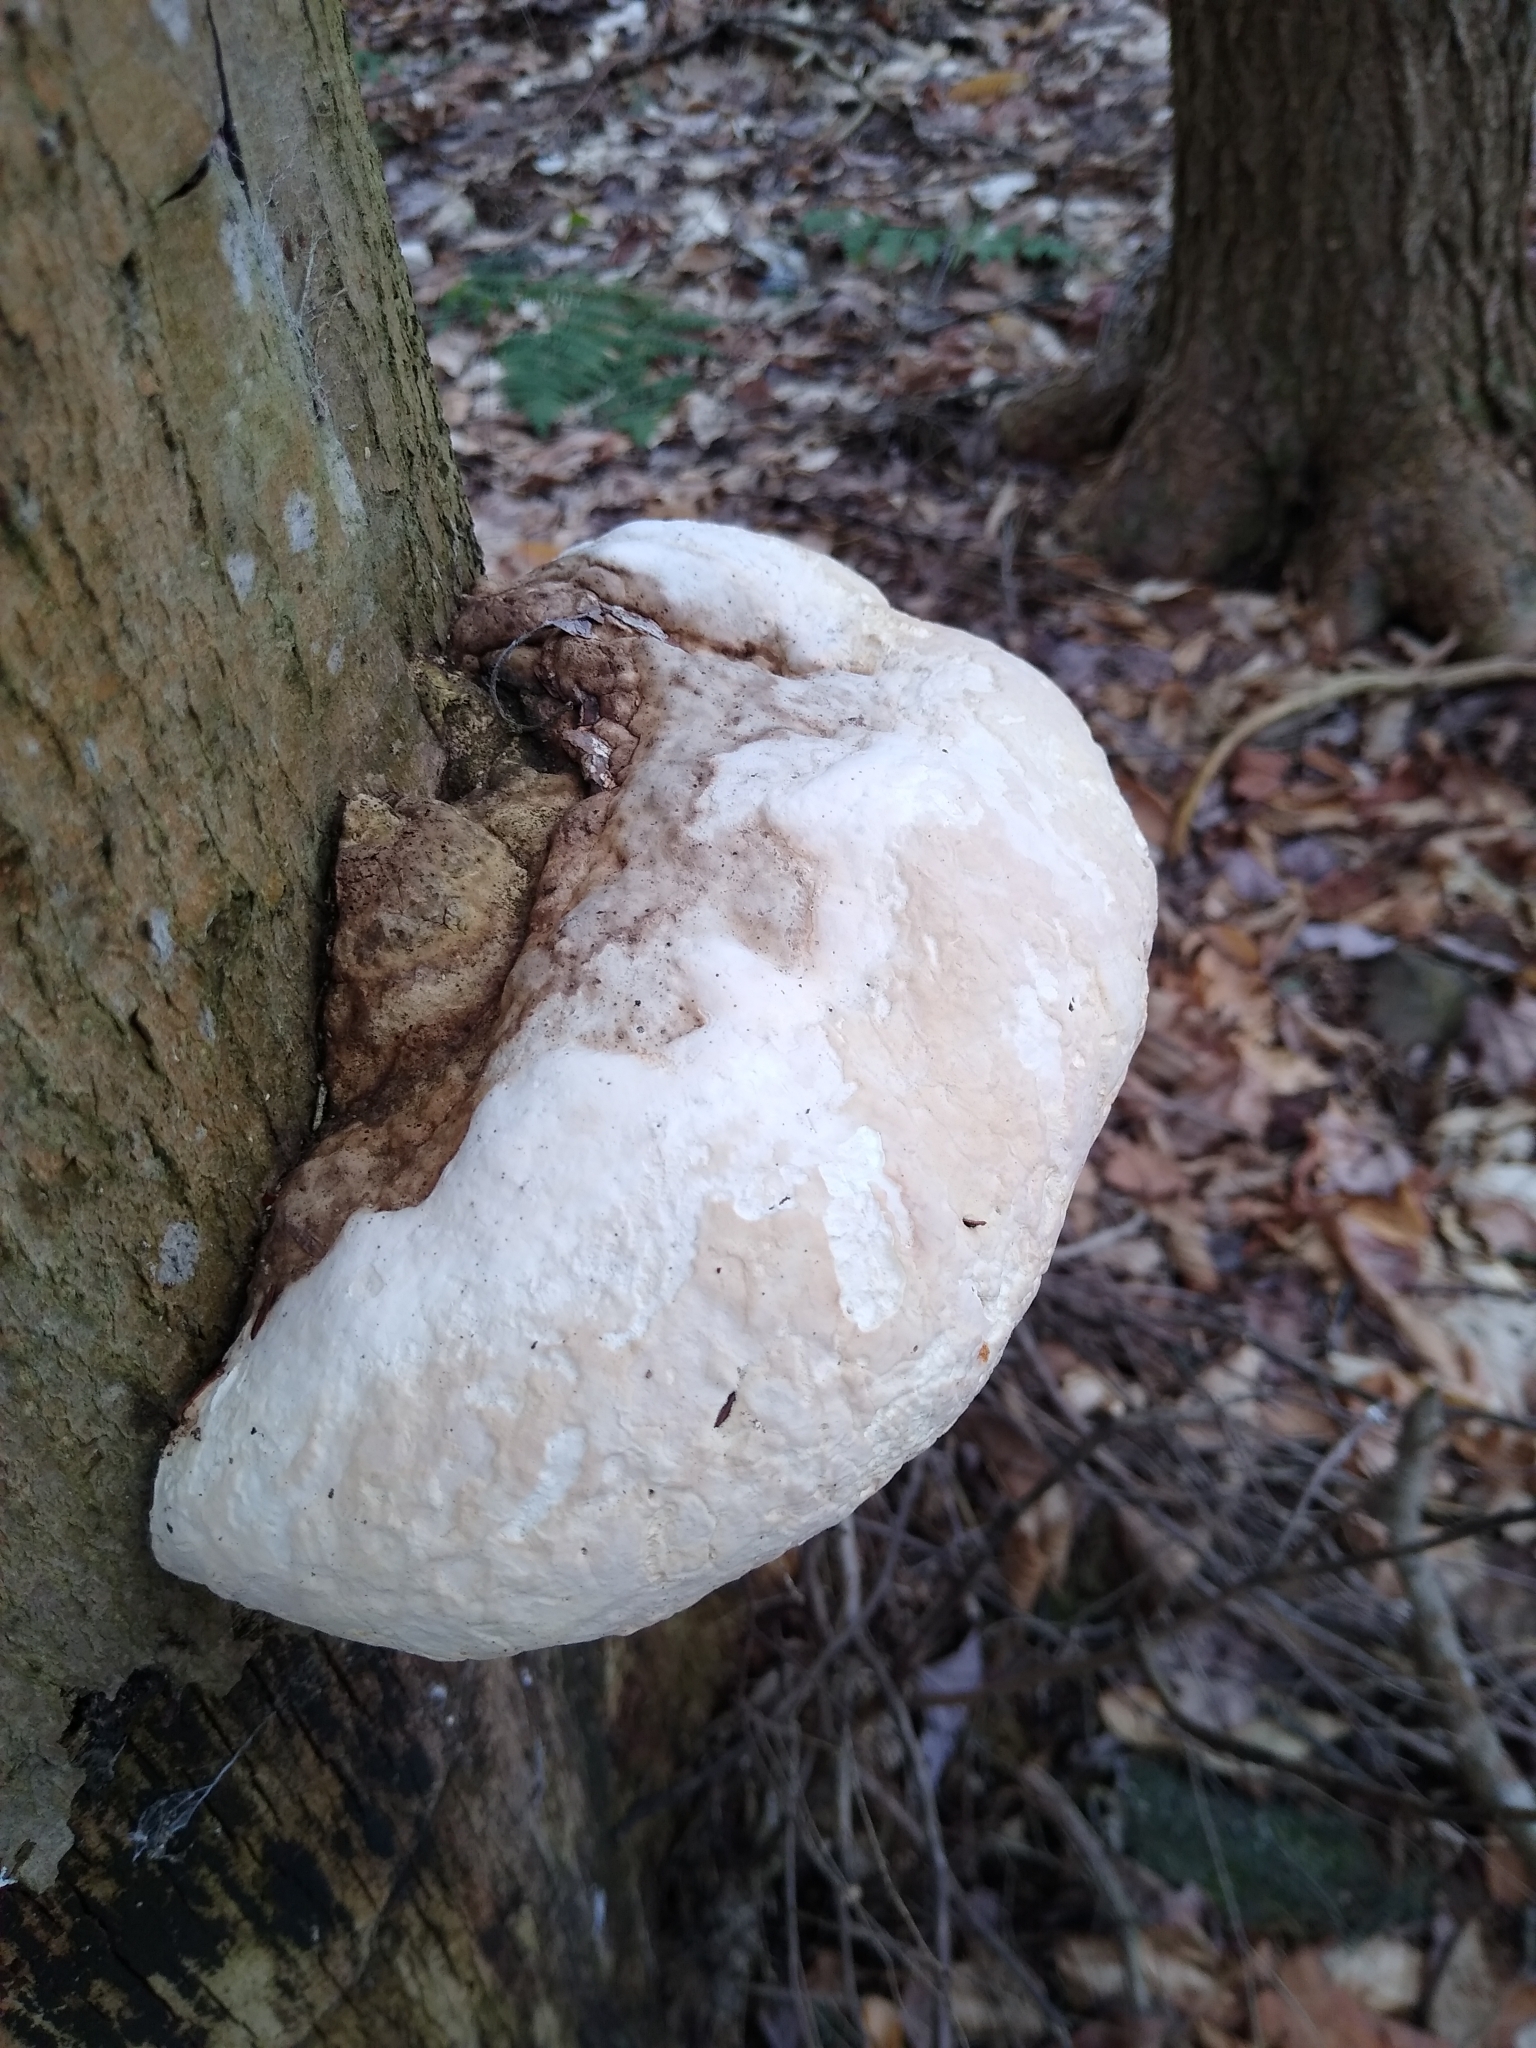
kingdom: Fungi
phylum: Basidiomycota
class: Agaricomycetes
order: Polyporales
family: Fomitopsidaceae
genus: Fomitopsis
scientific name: Fomitopsis ochracea
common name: American brown fomitopsis
